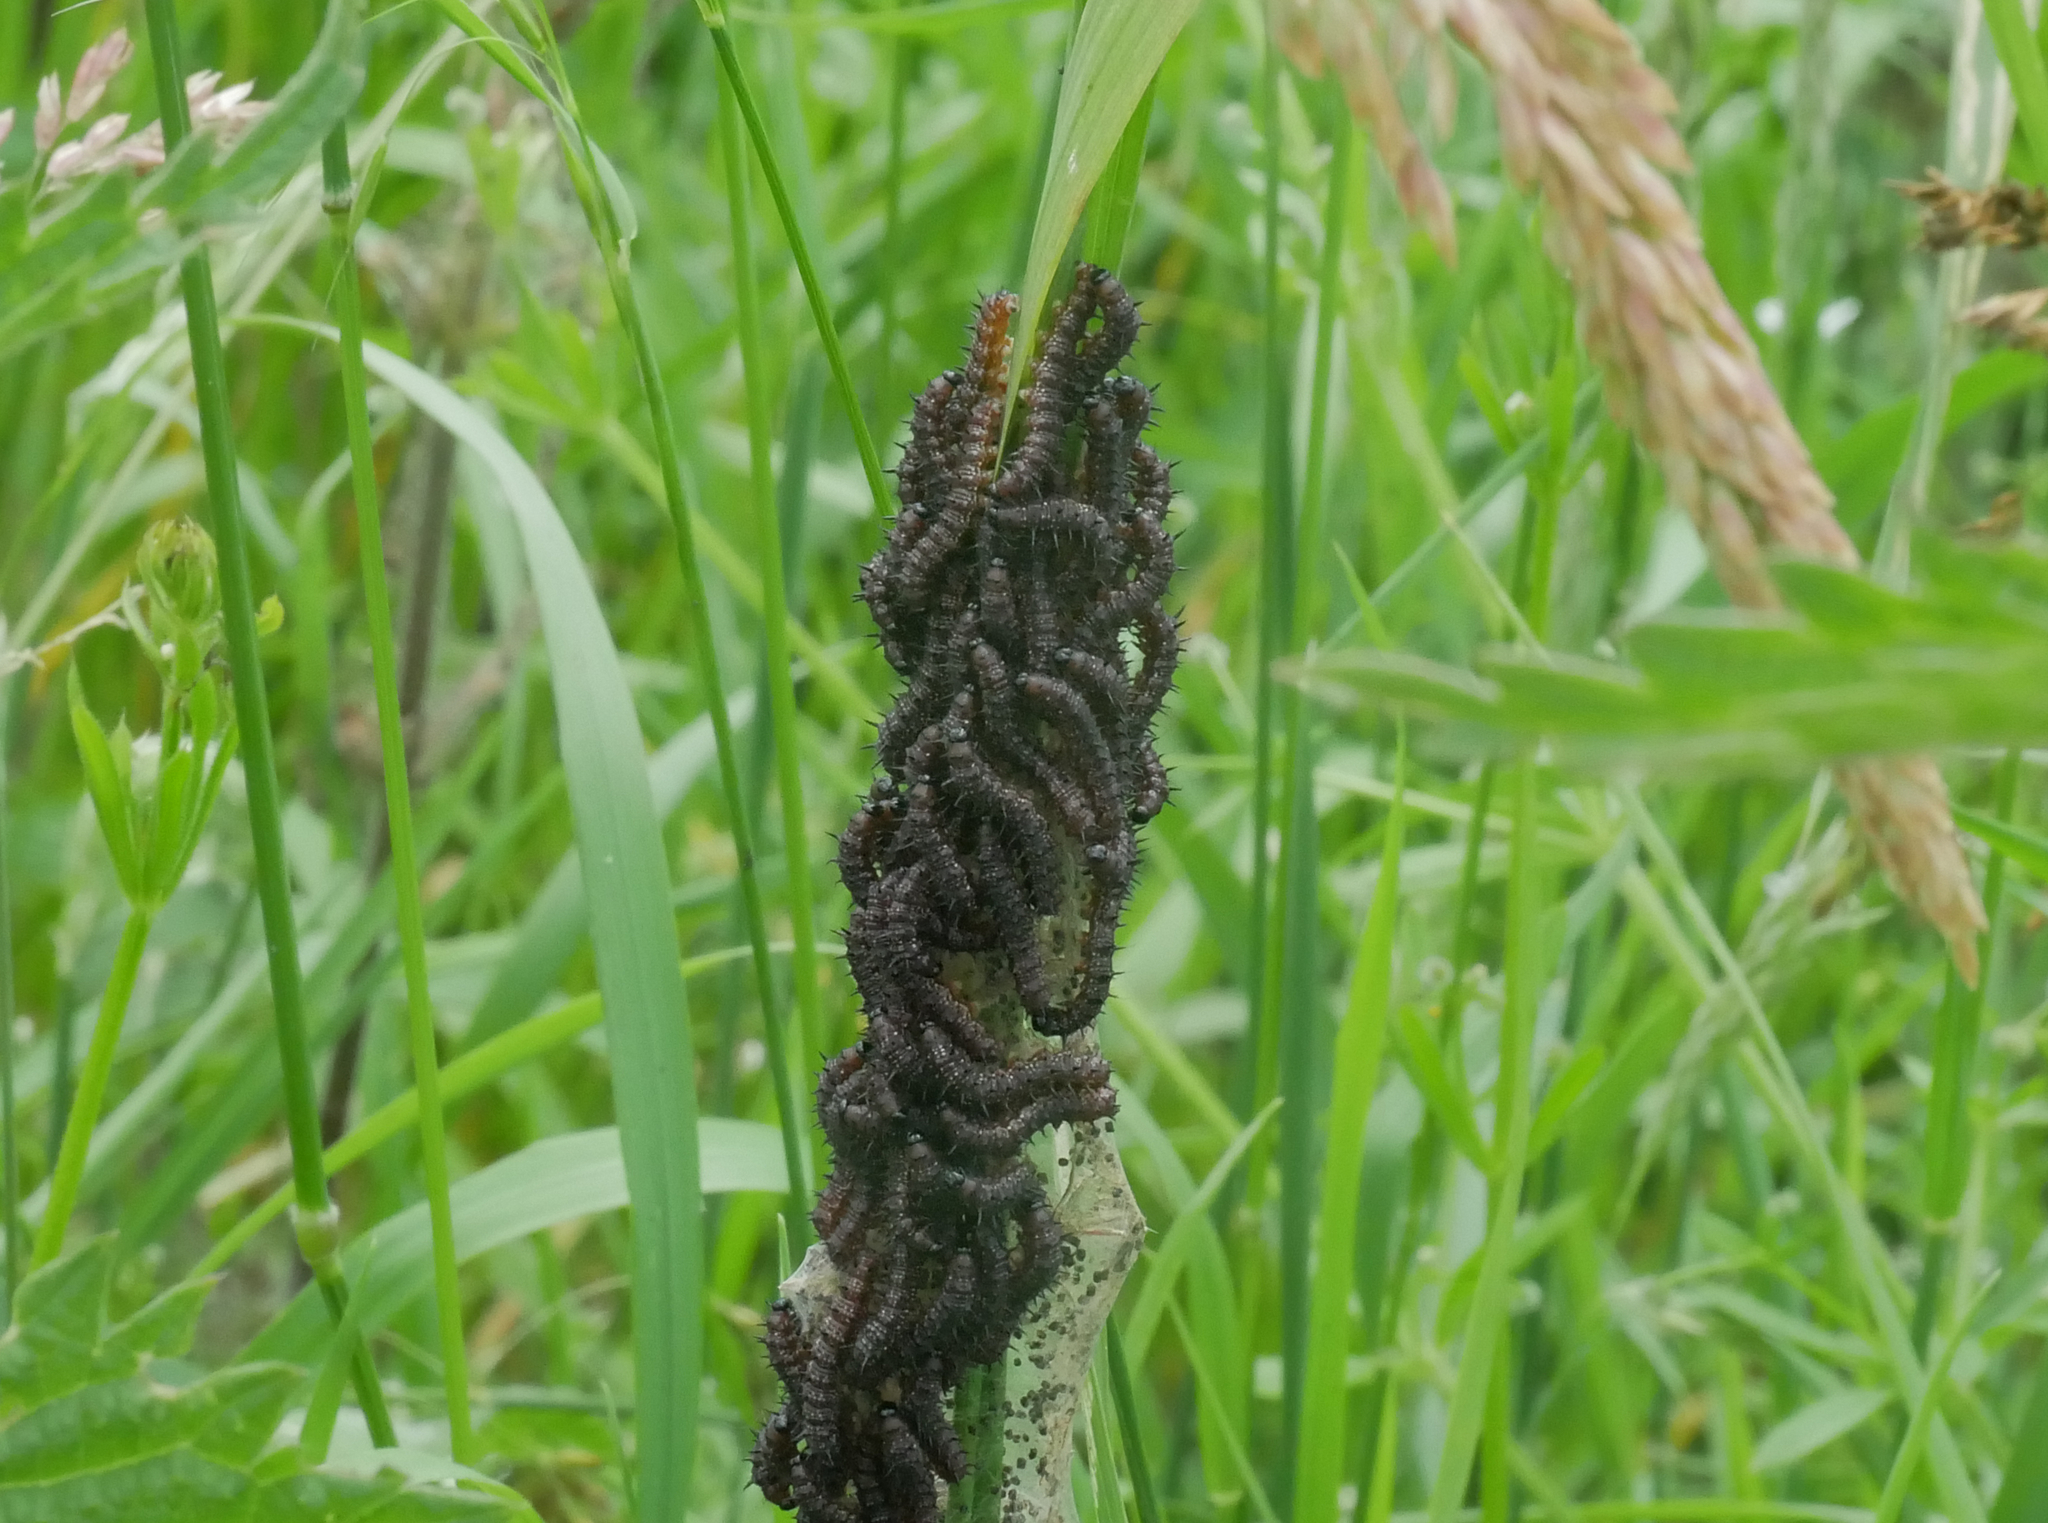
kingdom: Animalia
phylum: Arthropoda
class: Insecta
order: Lepidoptera
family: Nymphalidae
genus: Aglais
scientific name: Aglais io
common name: Peacock
